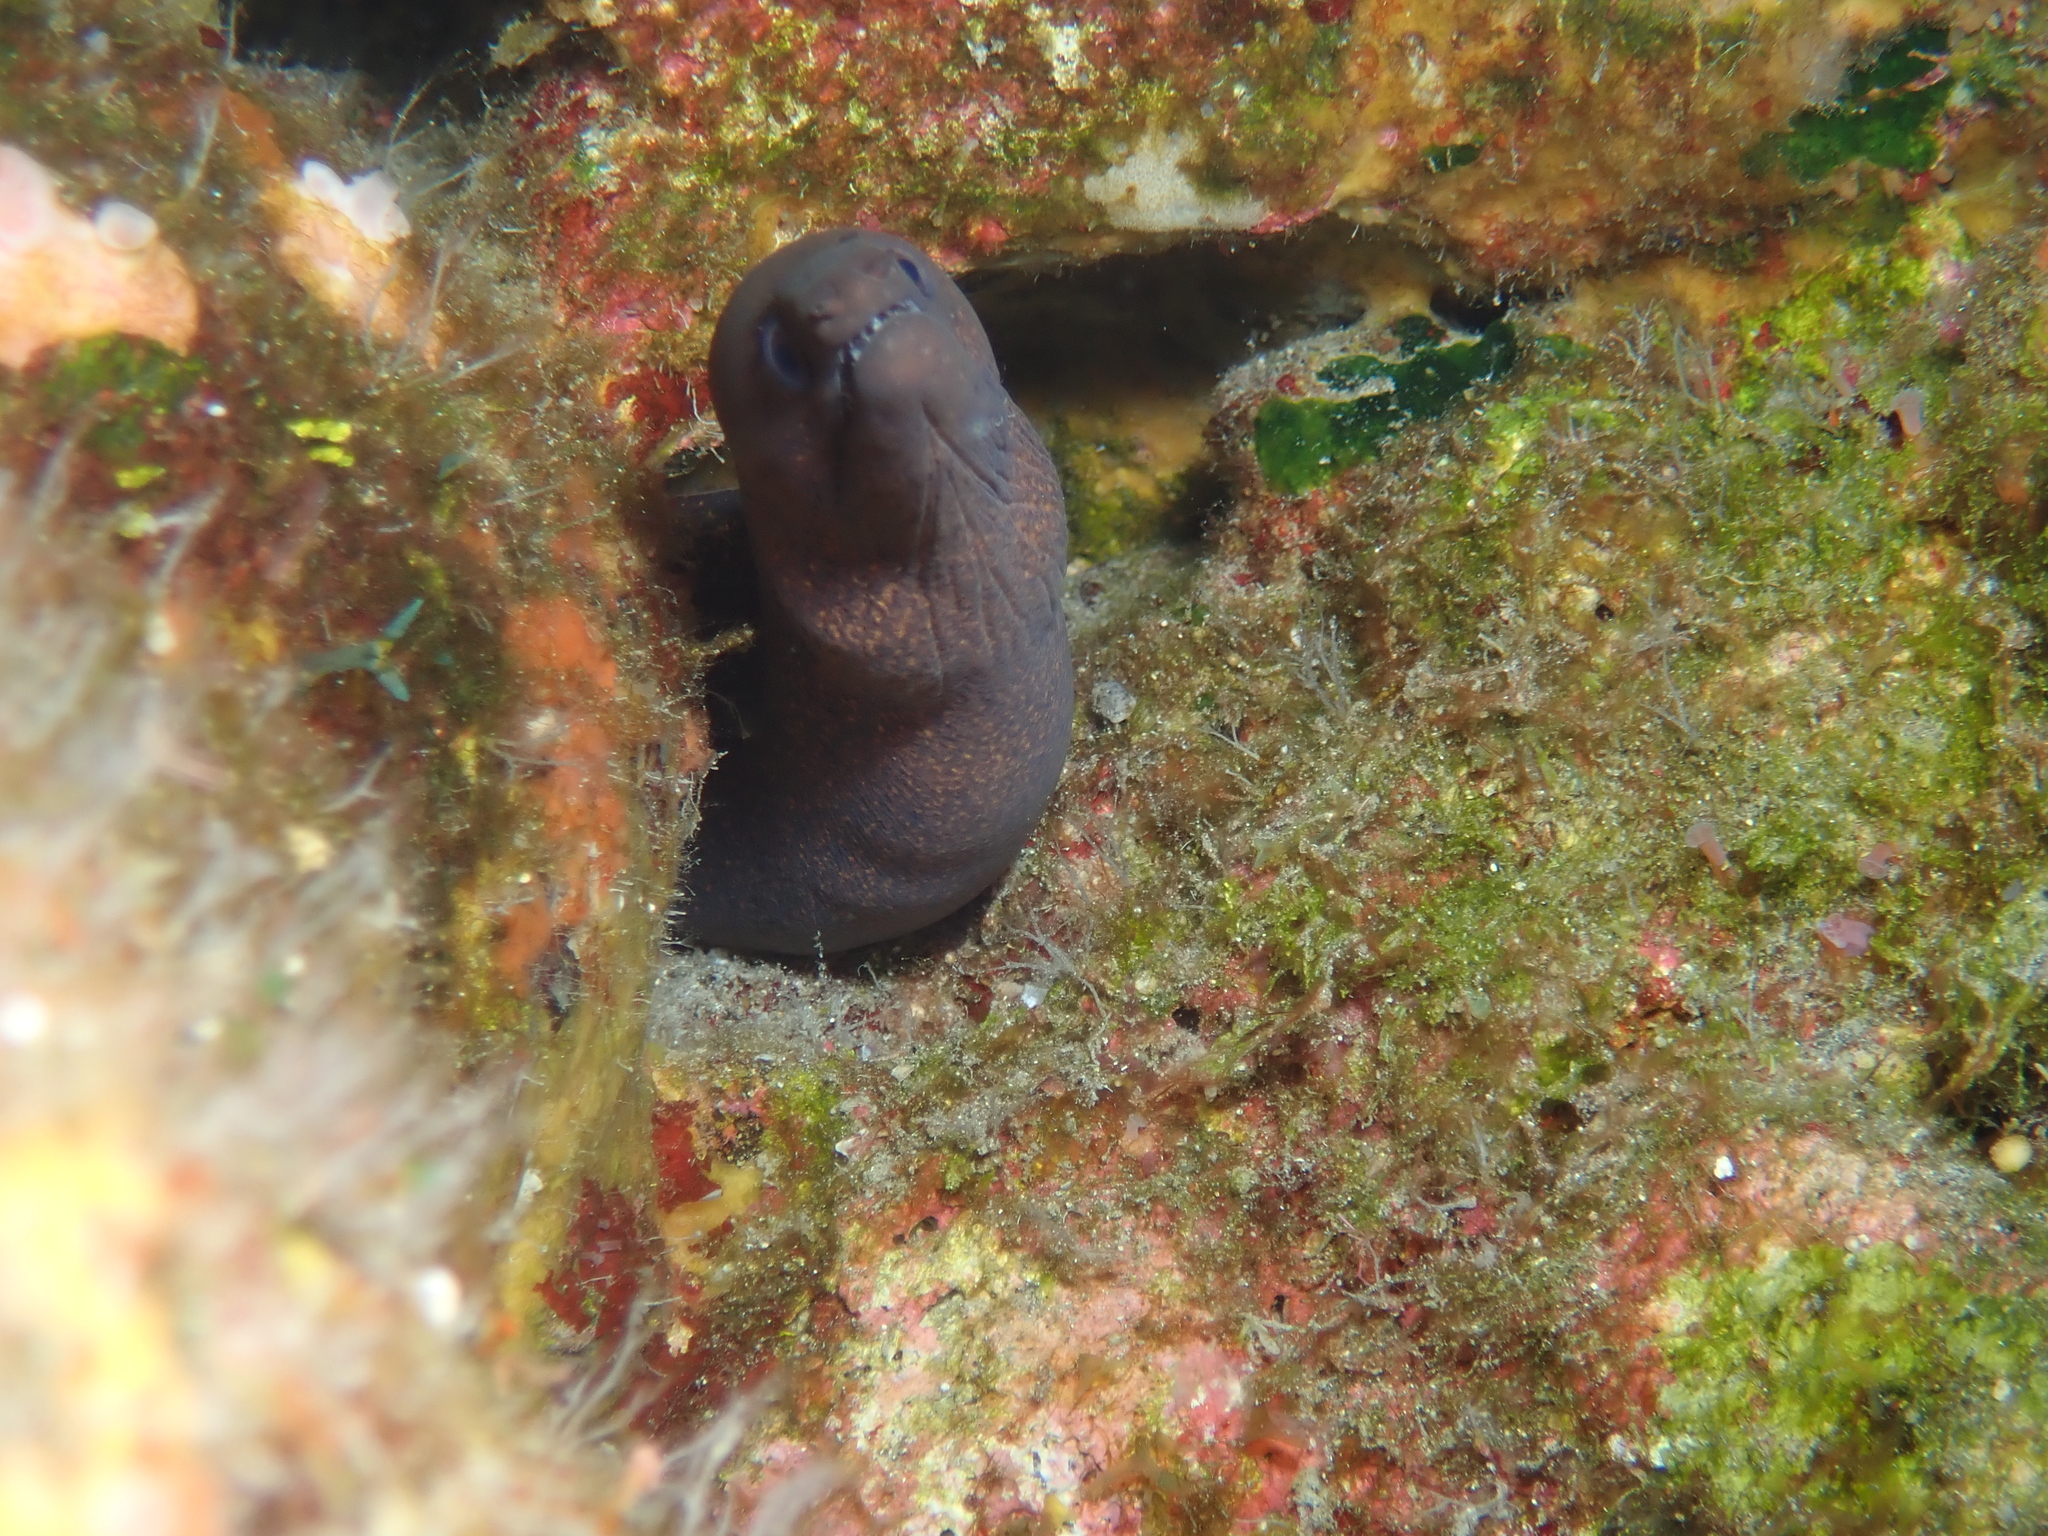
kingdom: Animalia
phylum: Chordata
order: Anguilliformes
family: Muraenidae
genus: Gymnothorax
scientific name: Gymnothorax eurostus
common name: Stout moray
